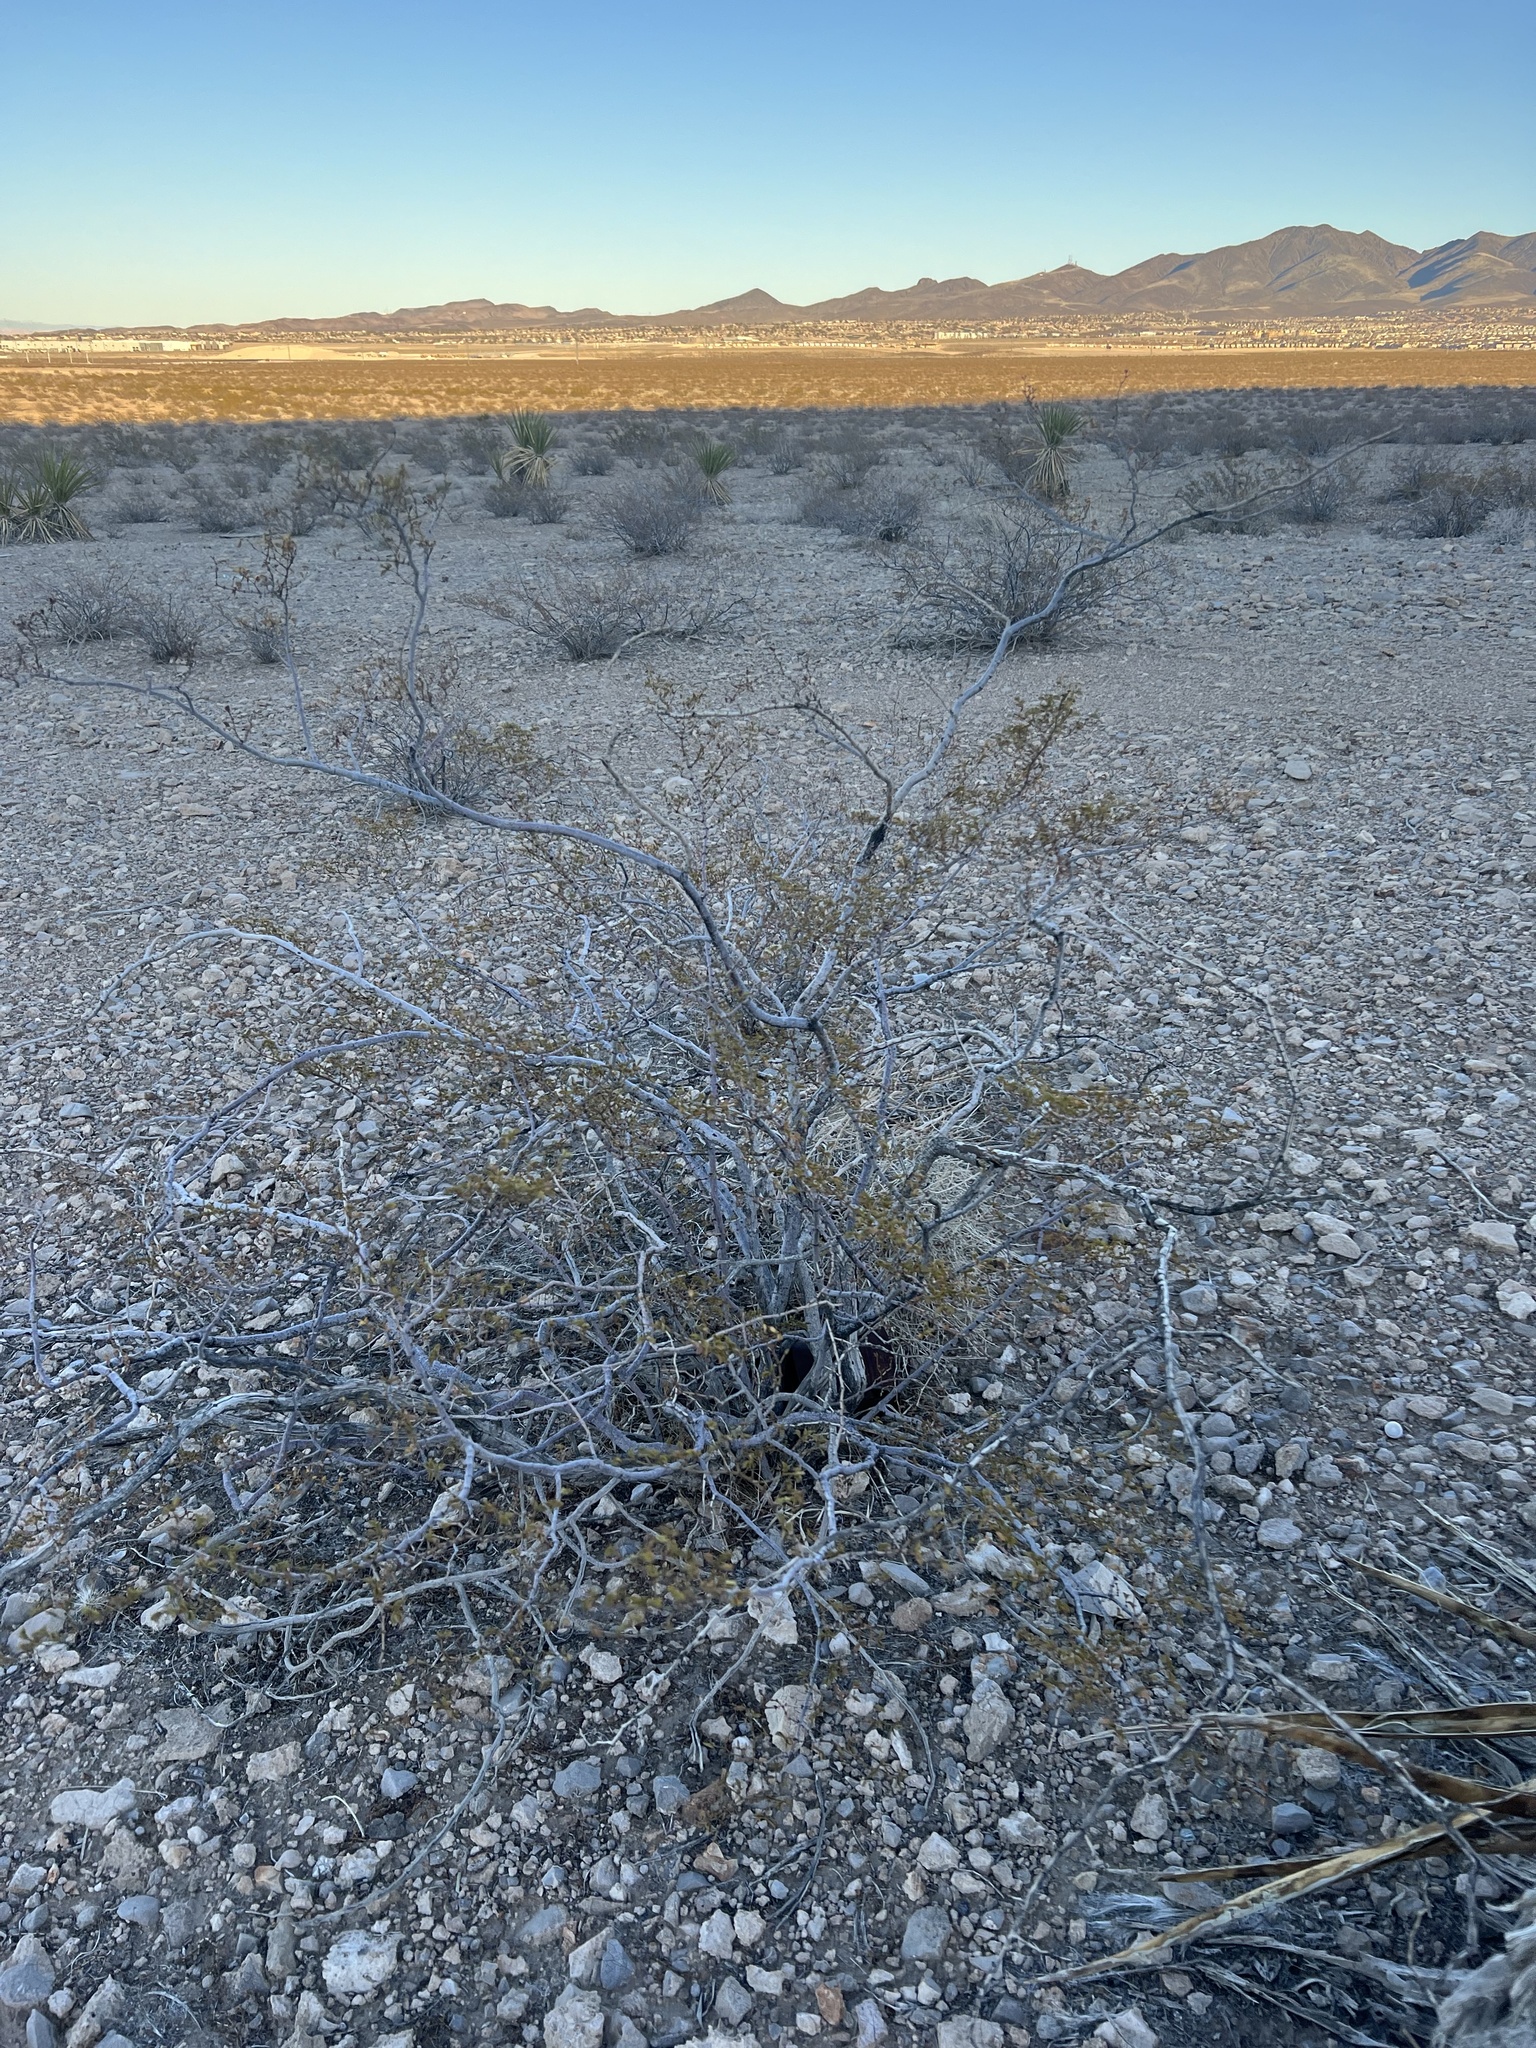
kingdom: Plantae
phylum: Tracheophyta
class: Magnoliopsida
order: Zygophyllales
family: Zygophyllaceae
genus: Larrea
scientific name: Larrea tridentata
